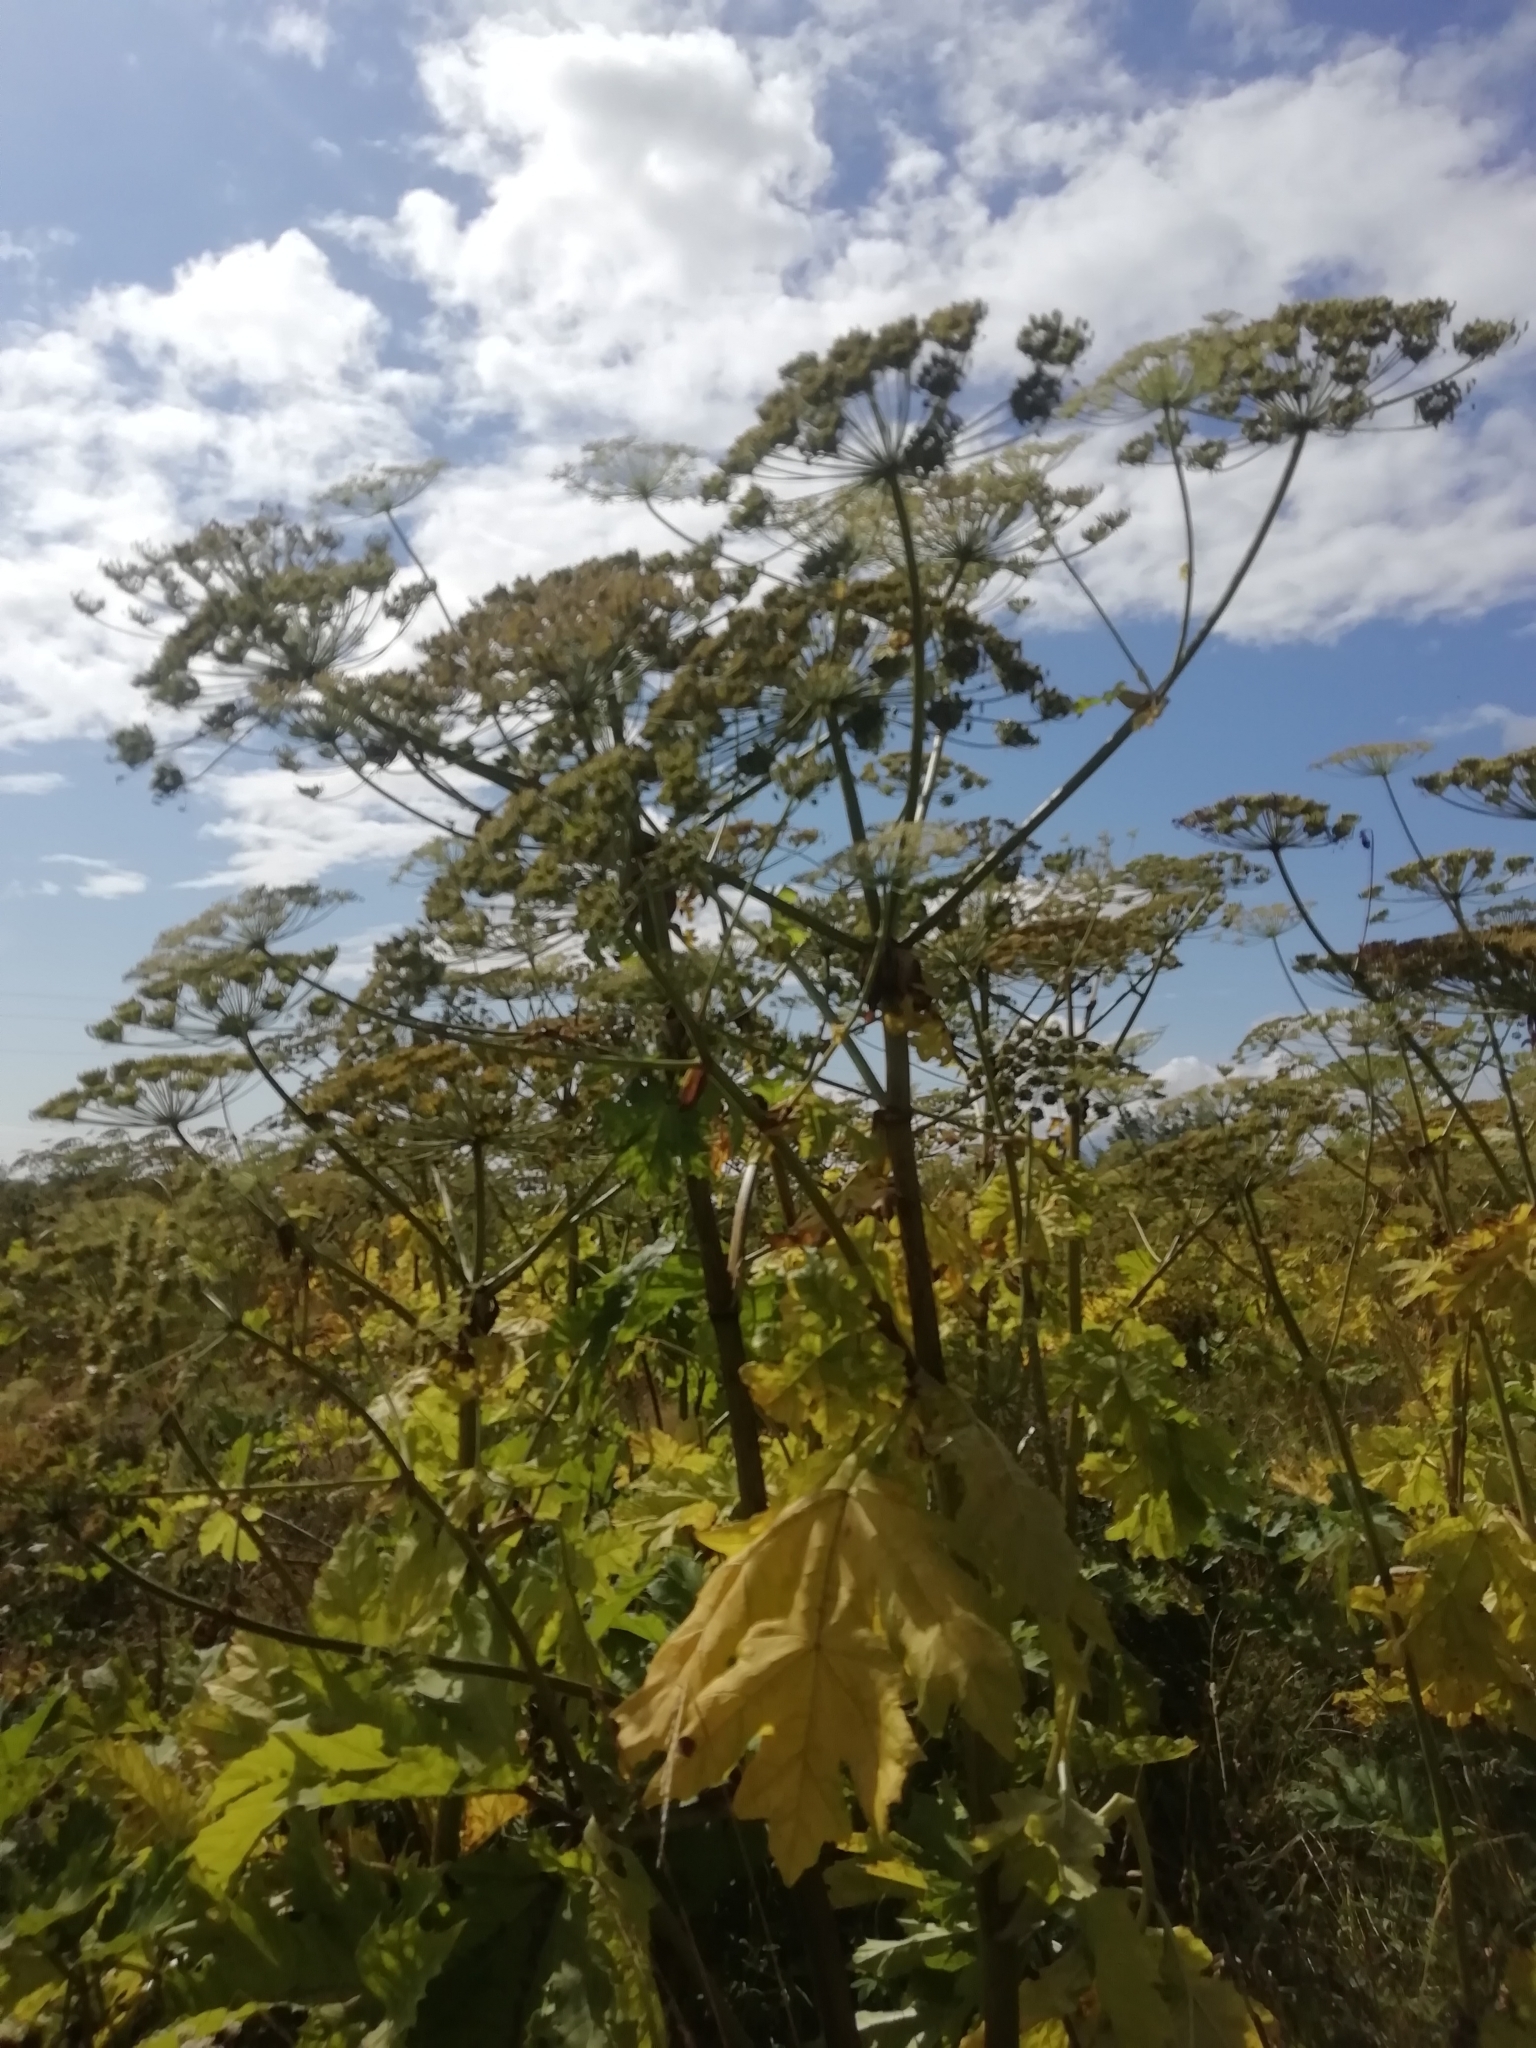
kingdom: Plantae
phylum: Tracheophyta
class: Magnoliopsida
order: Apiales
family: Apiaceae
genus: Heracleum
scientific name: Heracleum sosnowskyi
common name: Sosnowsky's hogweed
